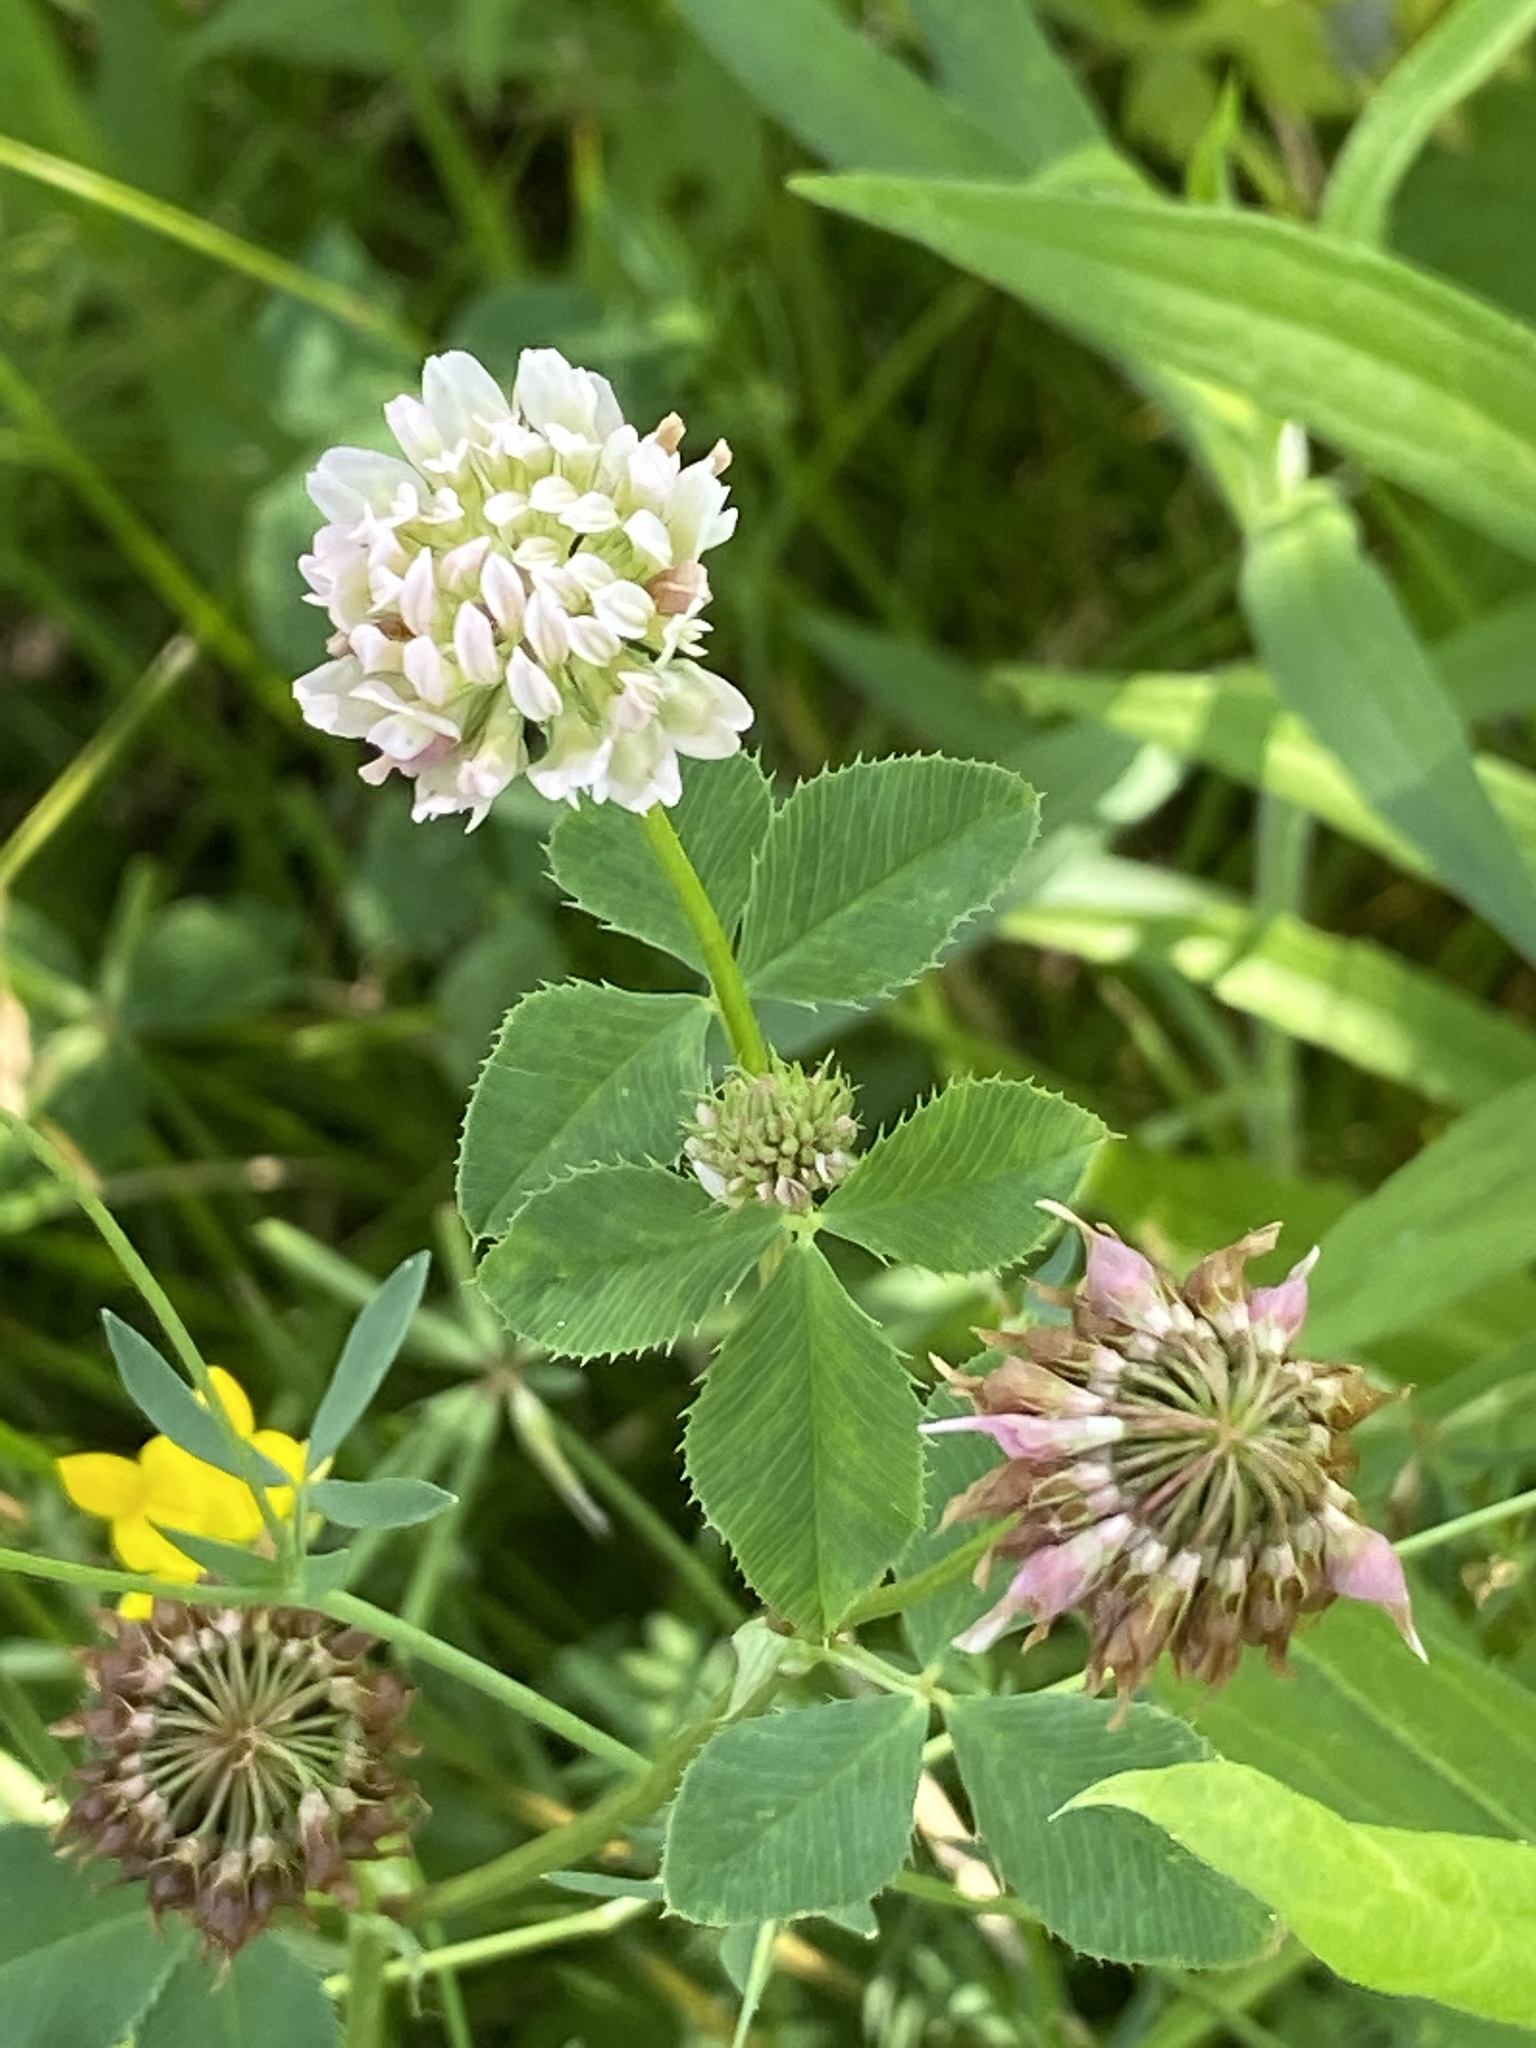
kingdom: Plantae
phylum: Tracheophyta
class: Magnoliopsida
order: Fabales
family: Fabaceae
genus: Trifolium
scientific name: Trifolium hybridum
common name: Alsike clover
